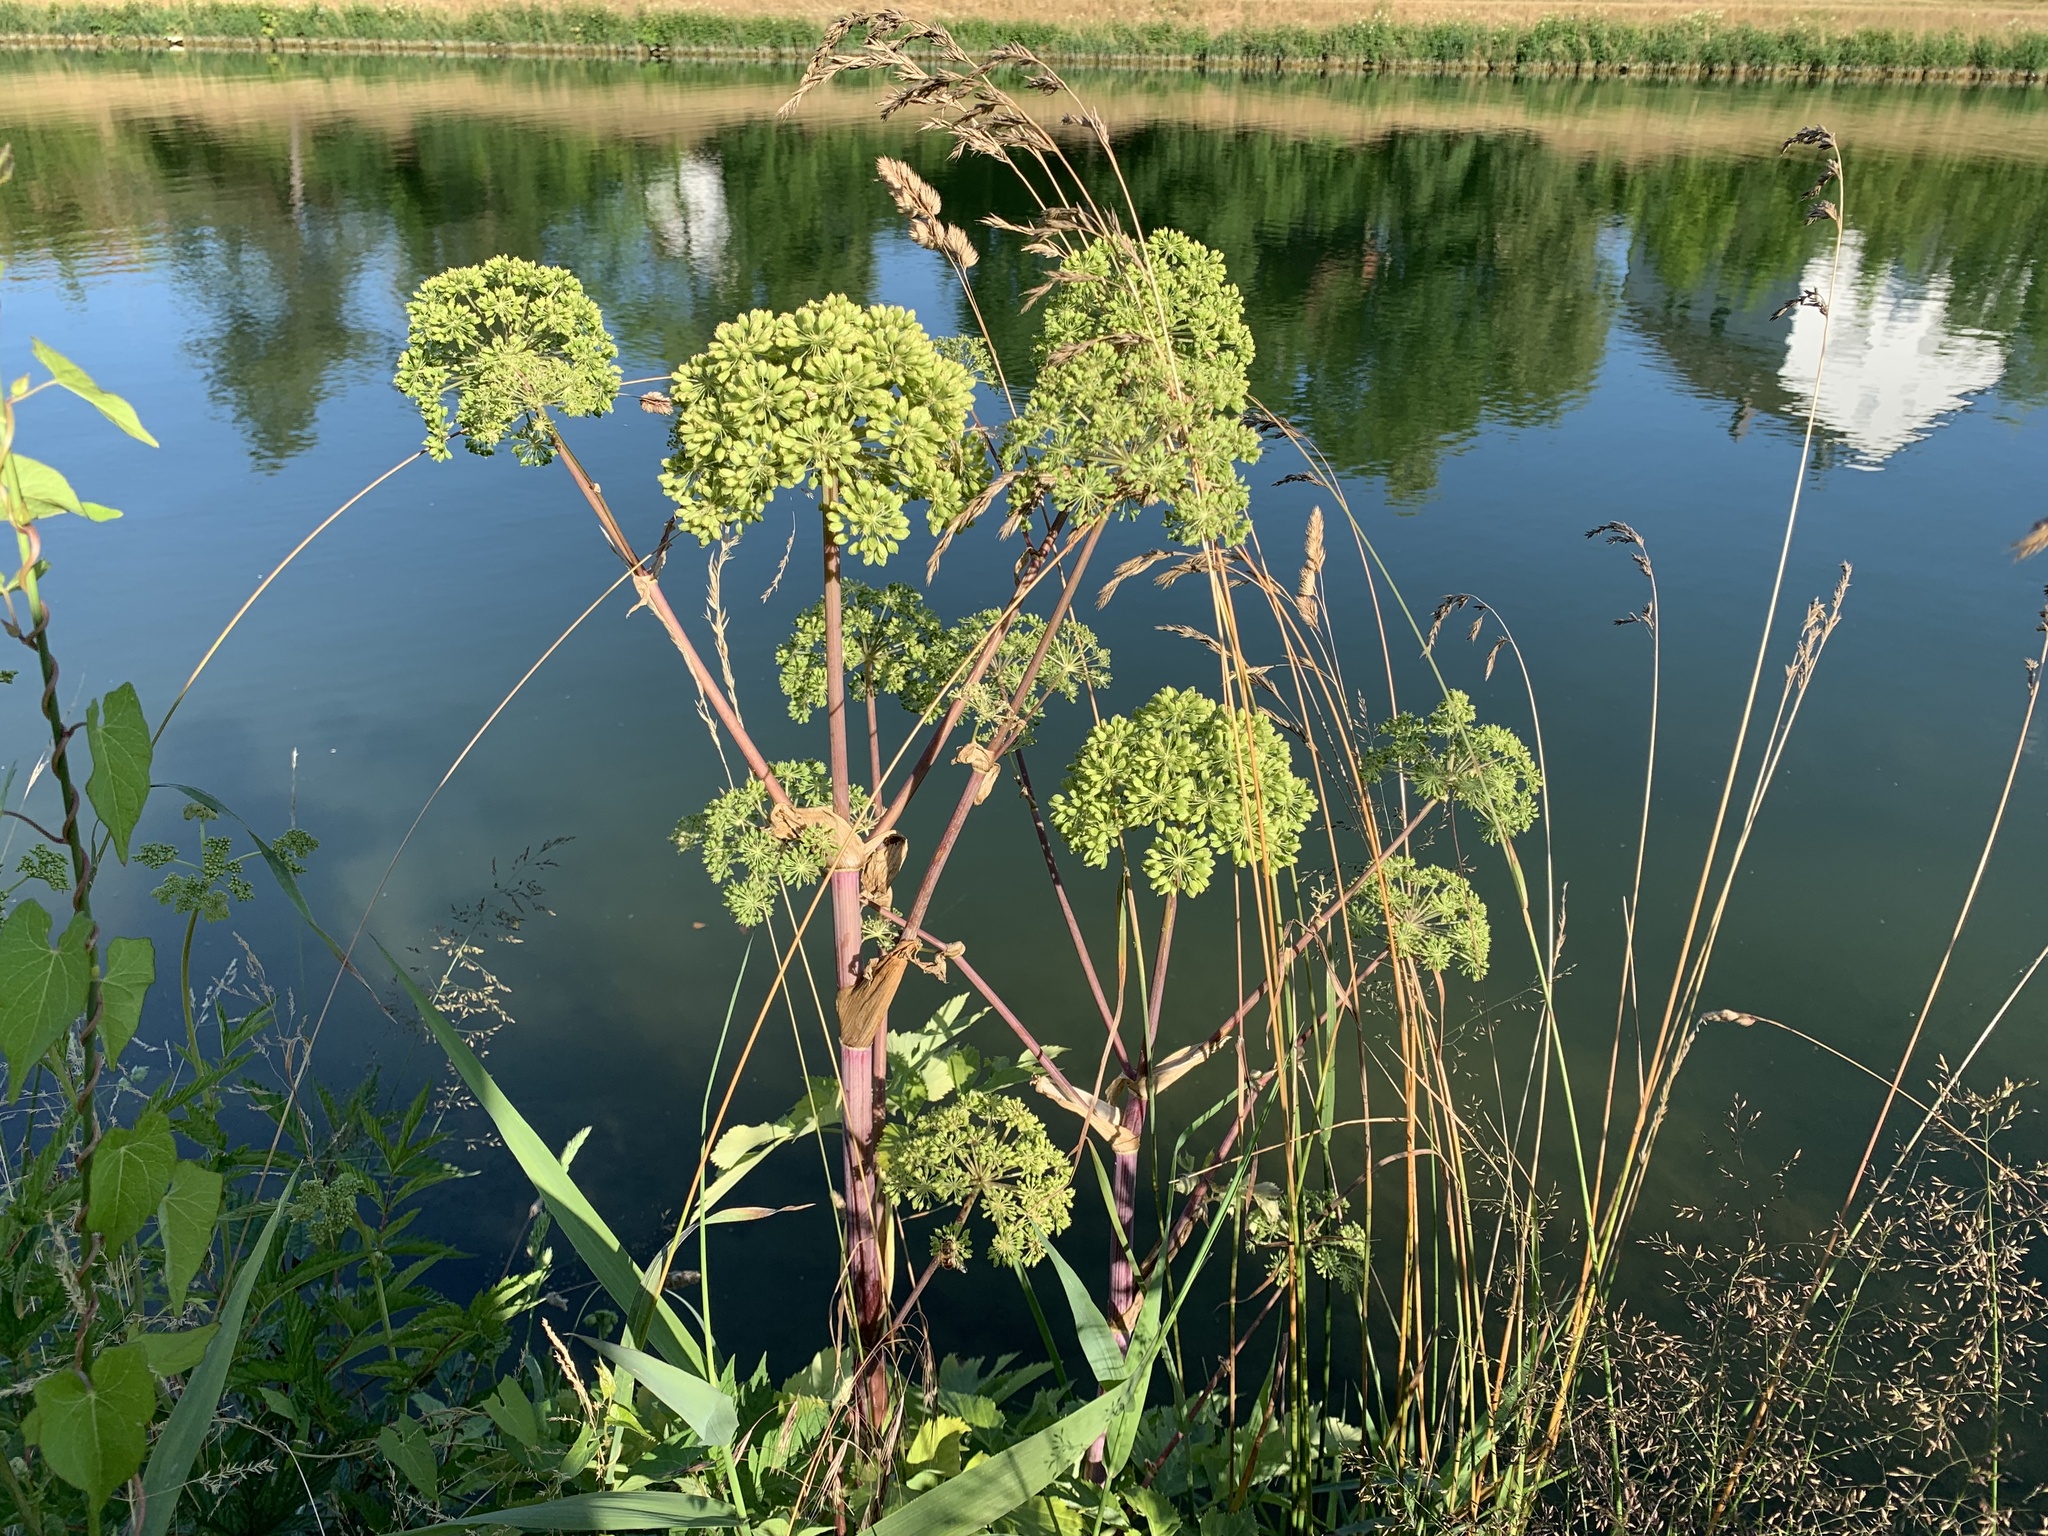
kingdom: Plantae
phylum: Tracheophyta
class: Magnoliopsida
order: Apiales
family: Apiaceae
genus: Angelica
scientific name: Angelica archangelica
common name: Garden angelica
